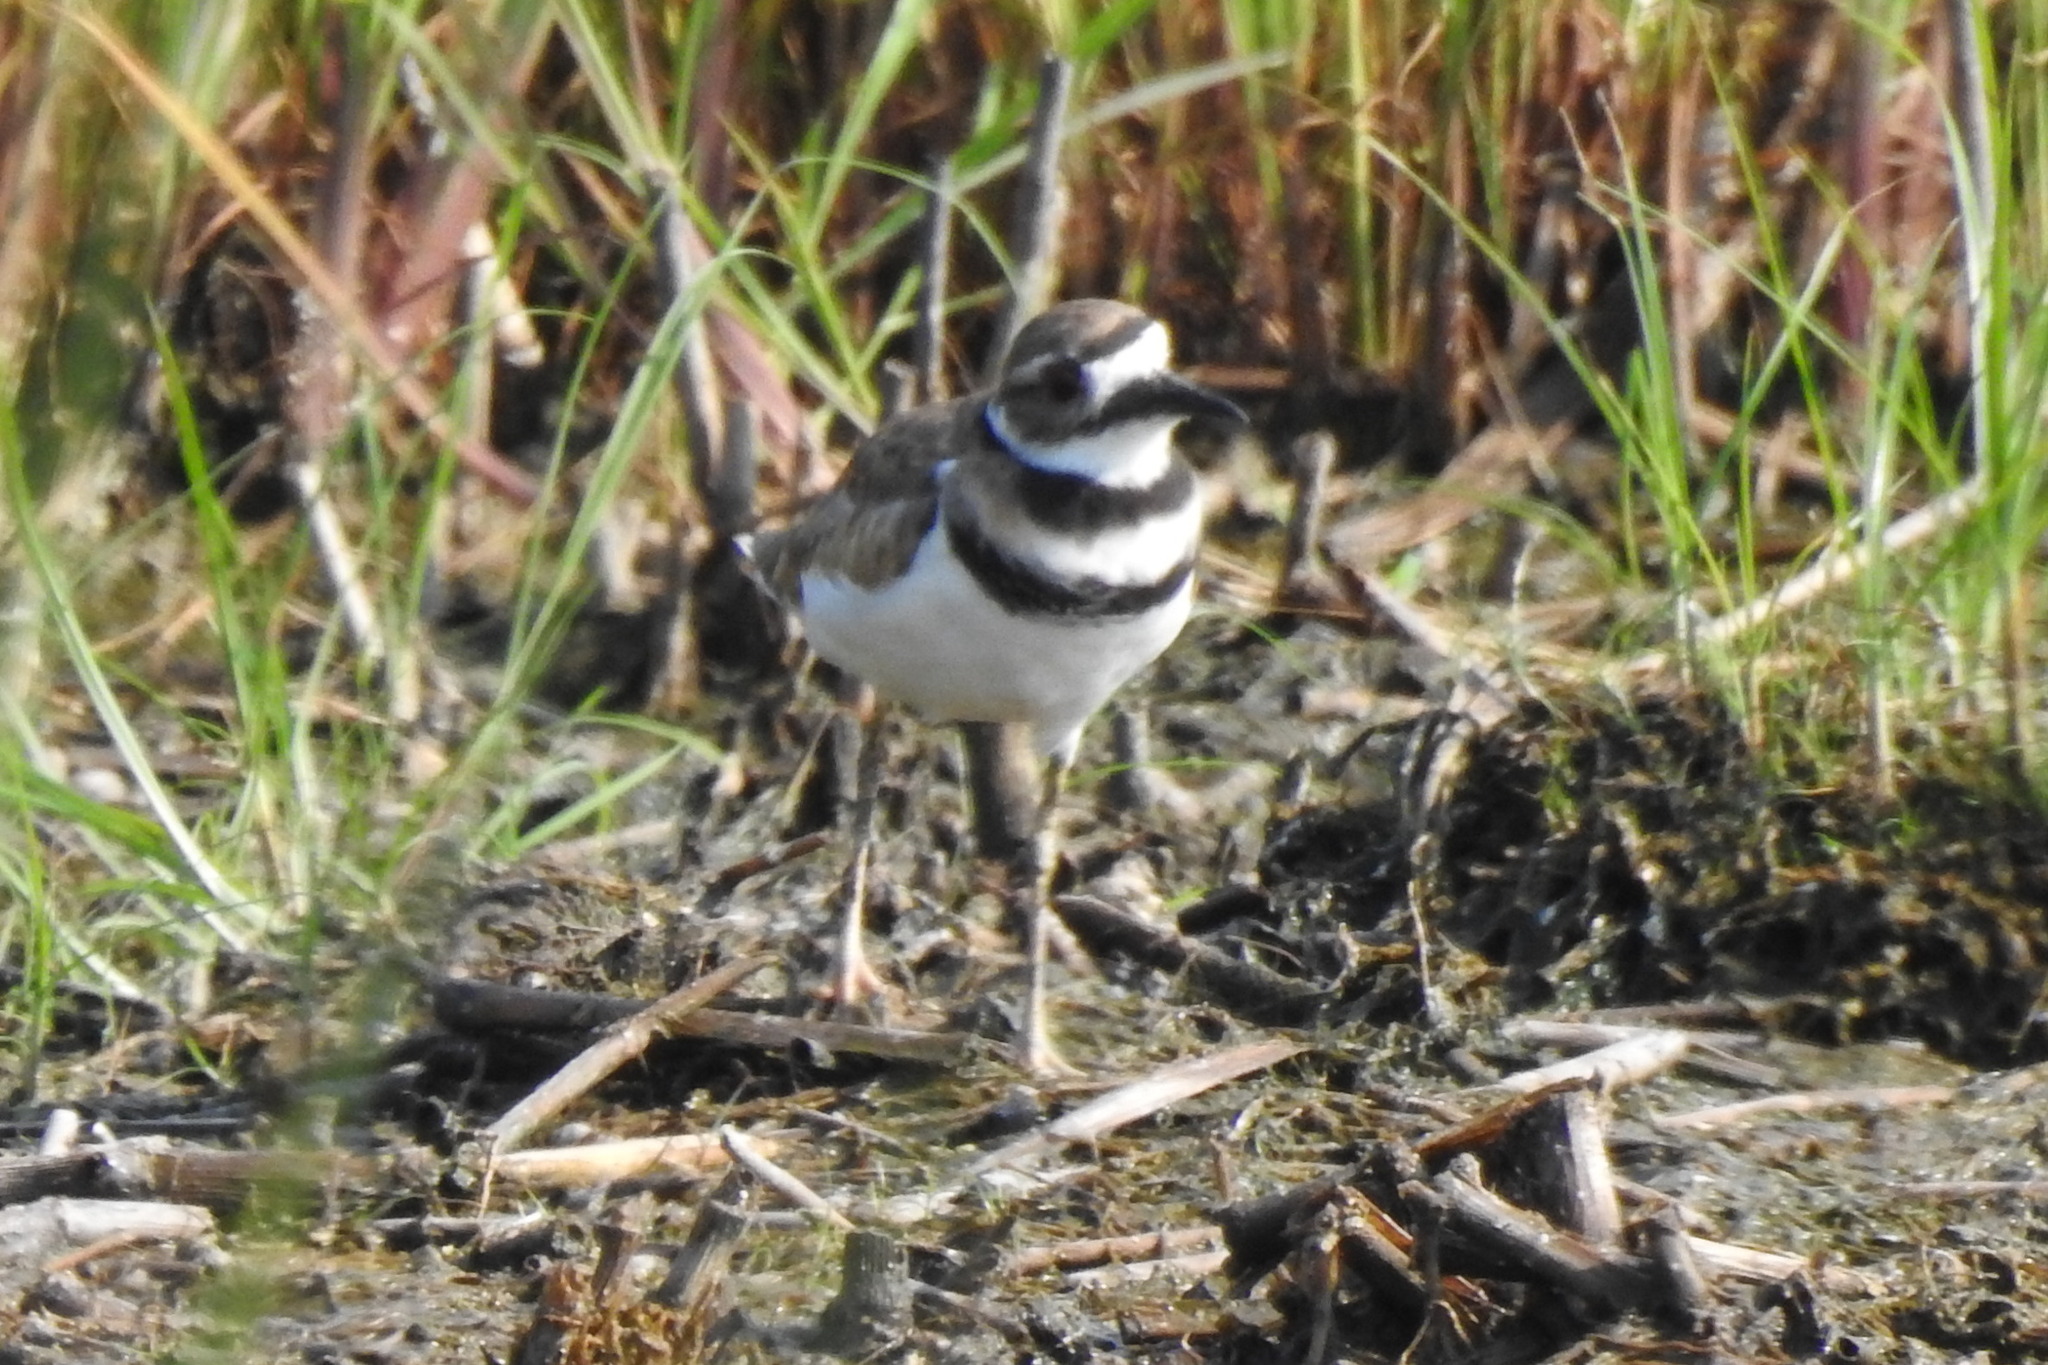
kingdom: Animalia
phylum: Chordata
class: Aves
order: Charadriiformes
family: Charadriidae
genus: Charadrius
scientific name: Charadrius vociferus
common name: Killdeer
